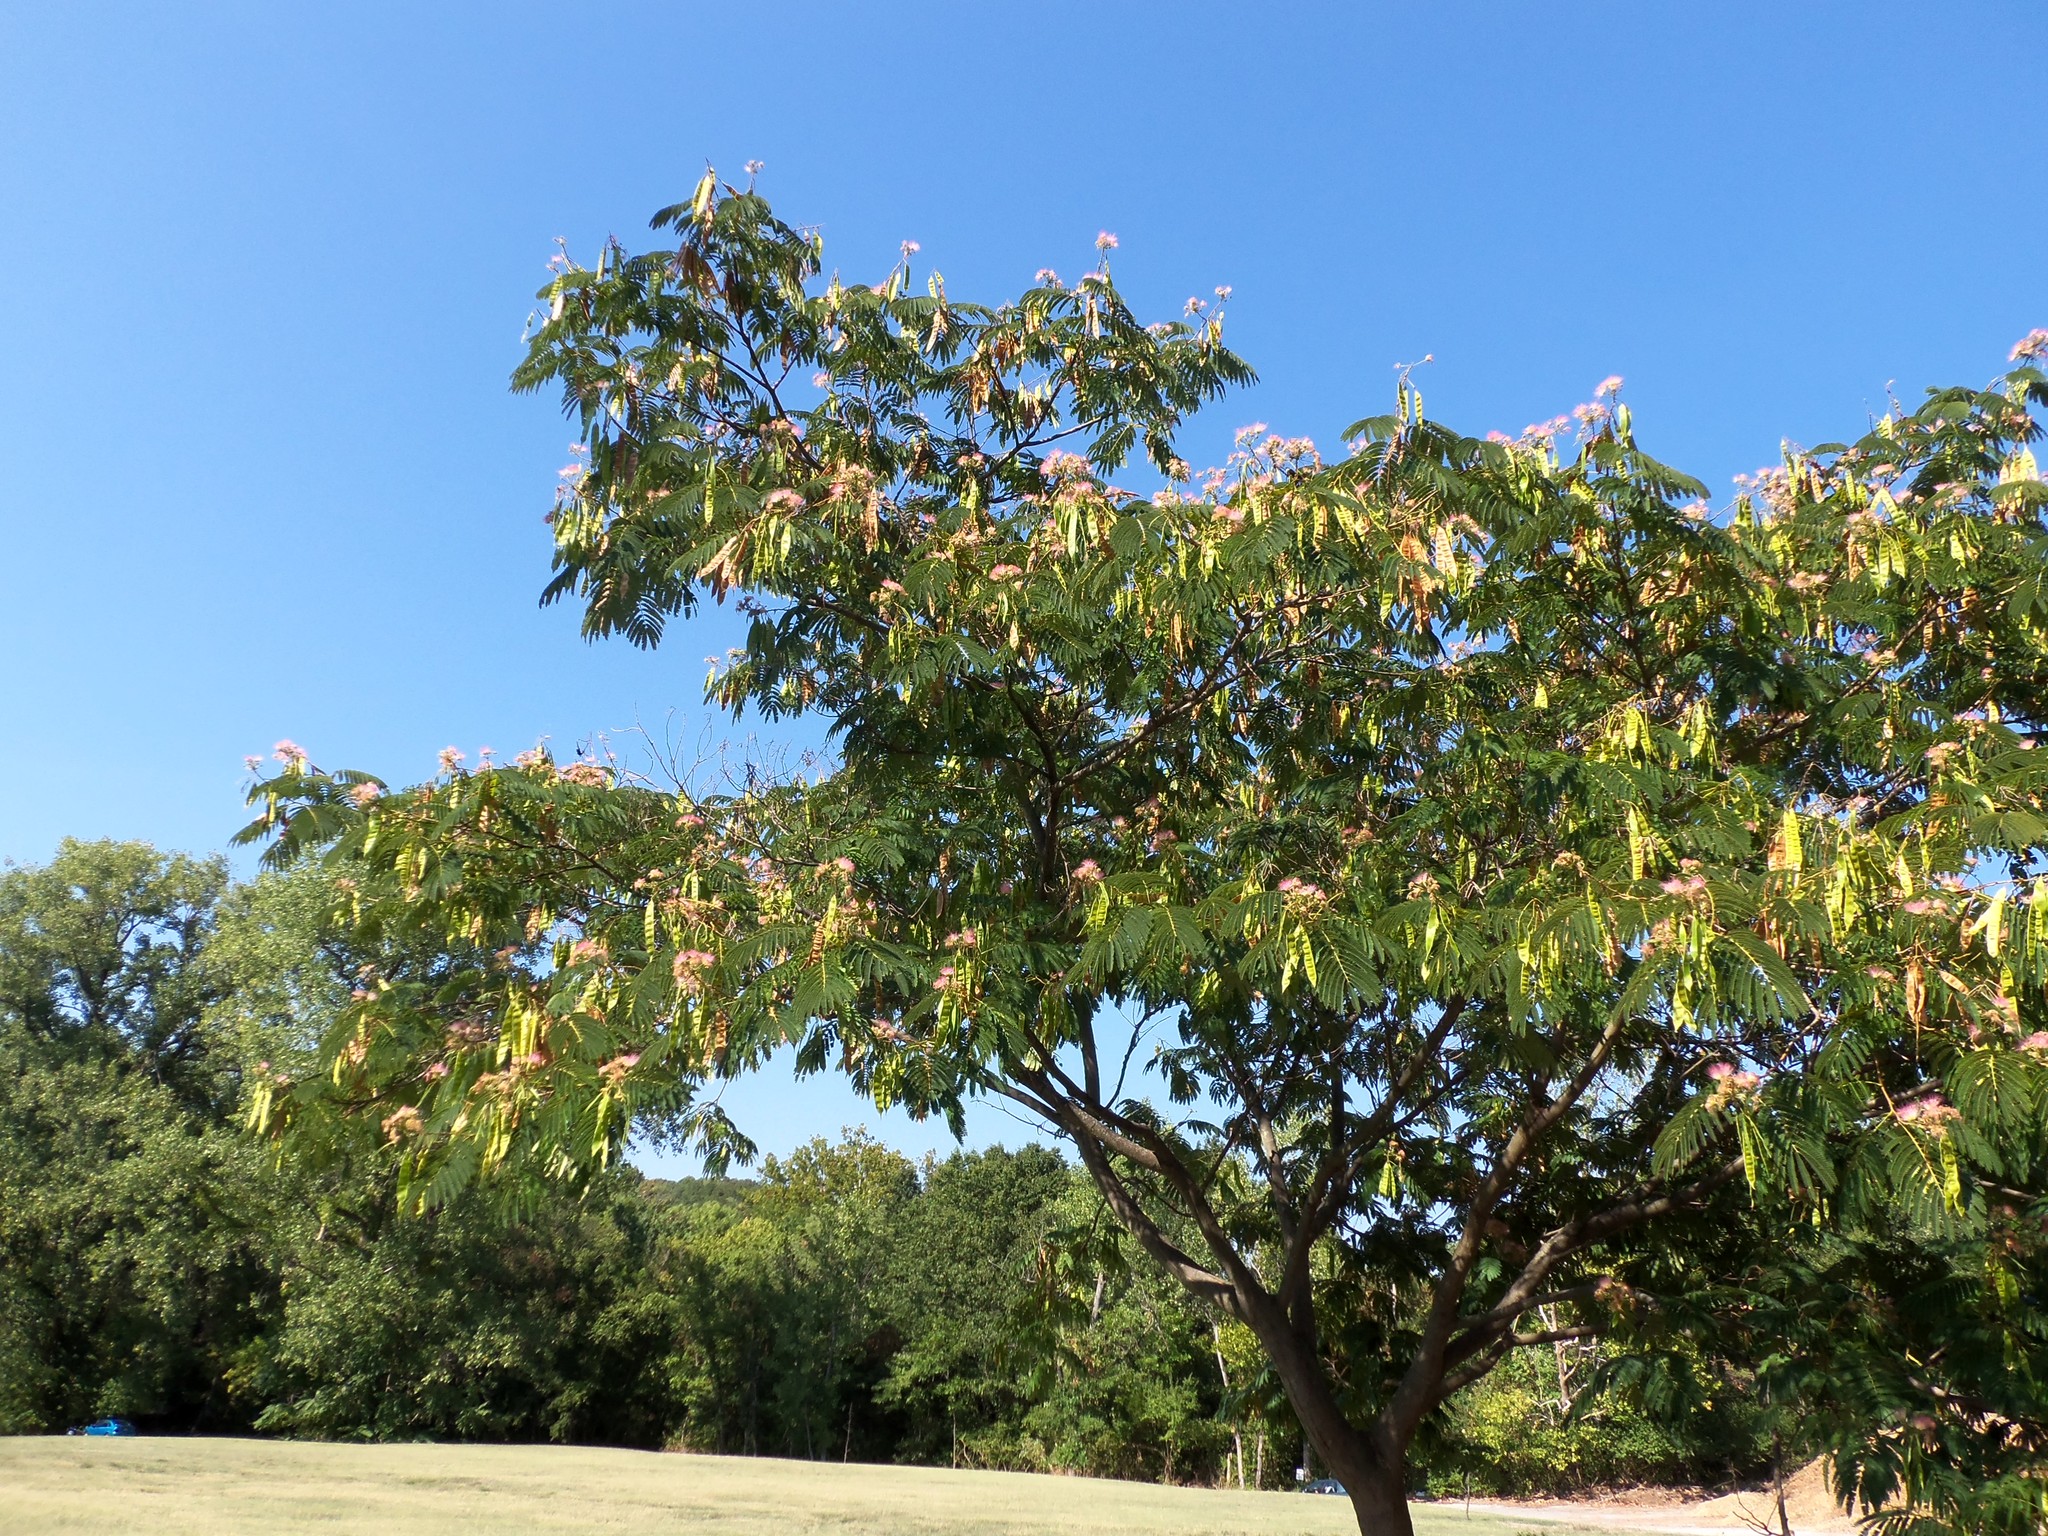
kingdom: Plantae
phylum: Tracheophyta
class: Magnoliopsida
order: Fabales
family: Fabaceae
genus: Albizia
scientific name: Albizia julibrissin
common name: Silktree
